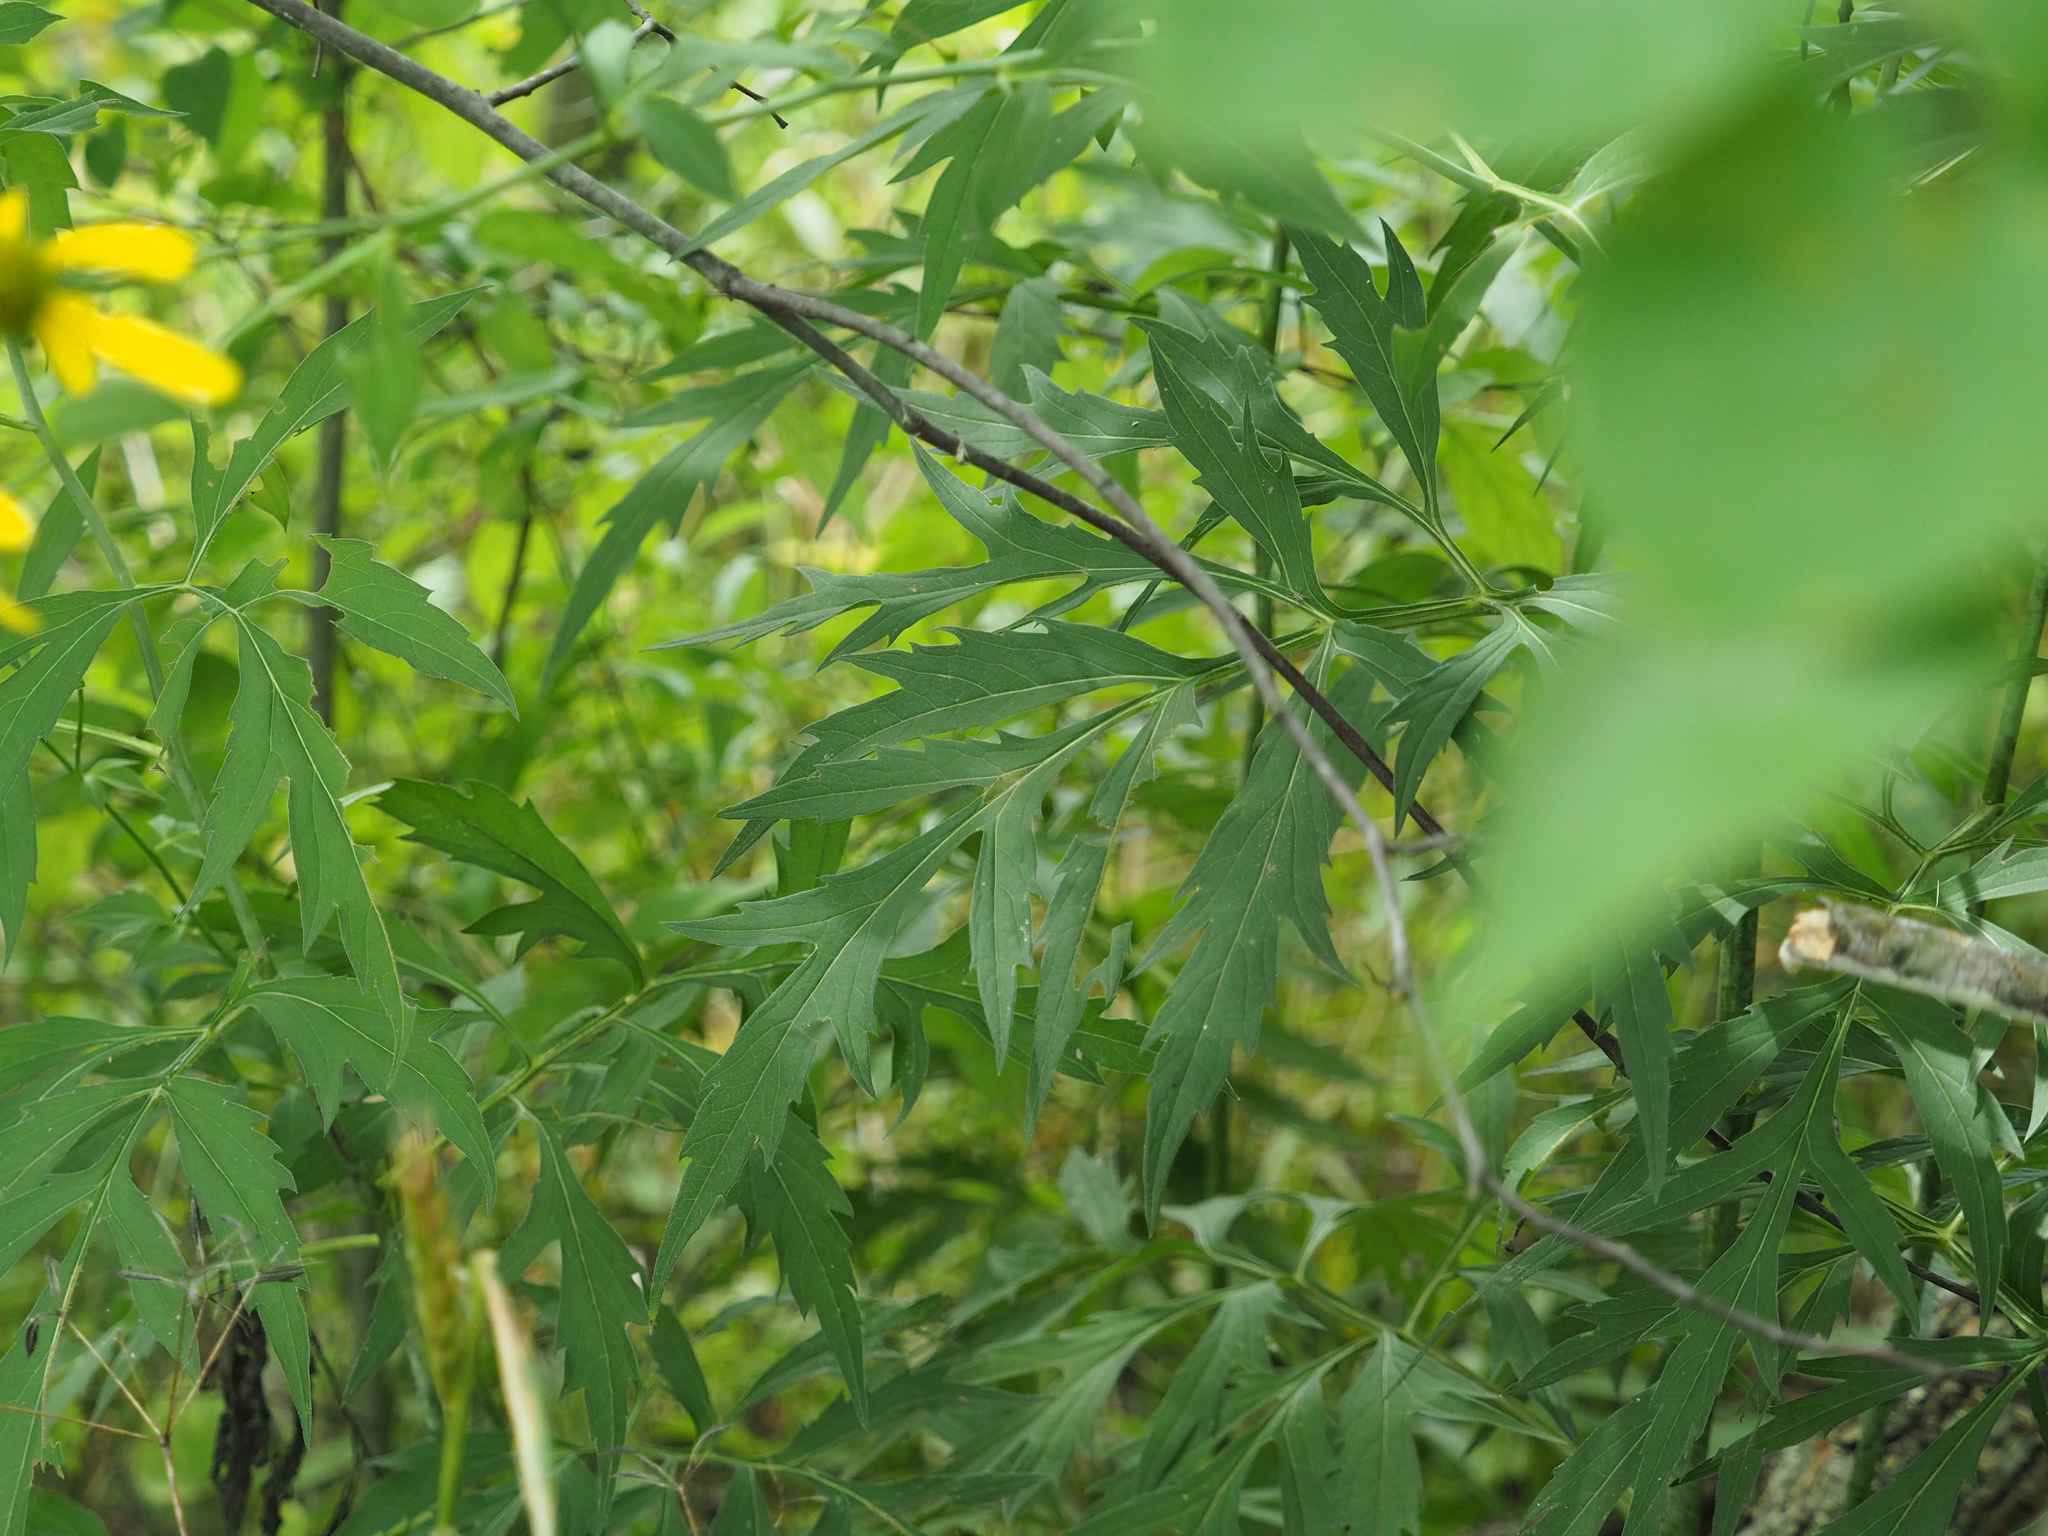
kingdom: Plantae
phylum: Tracheophyta
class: Magnoliopsida
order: Asterales
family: Asteraceae
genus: Rudbeckia
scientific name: Rudbeckia laciniata
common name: Coneflower
